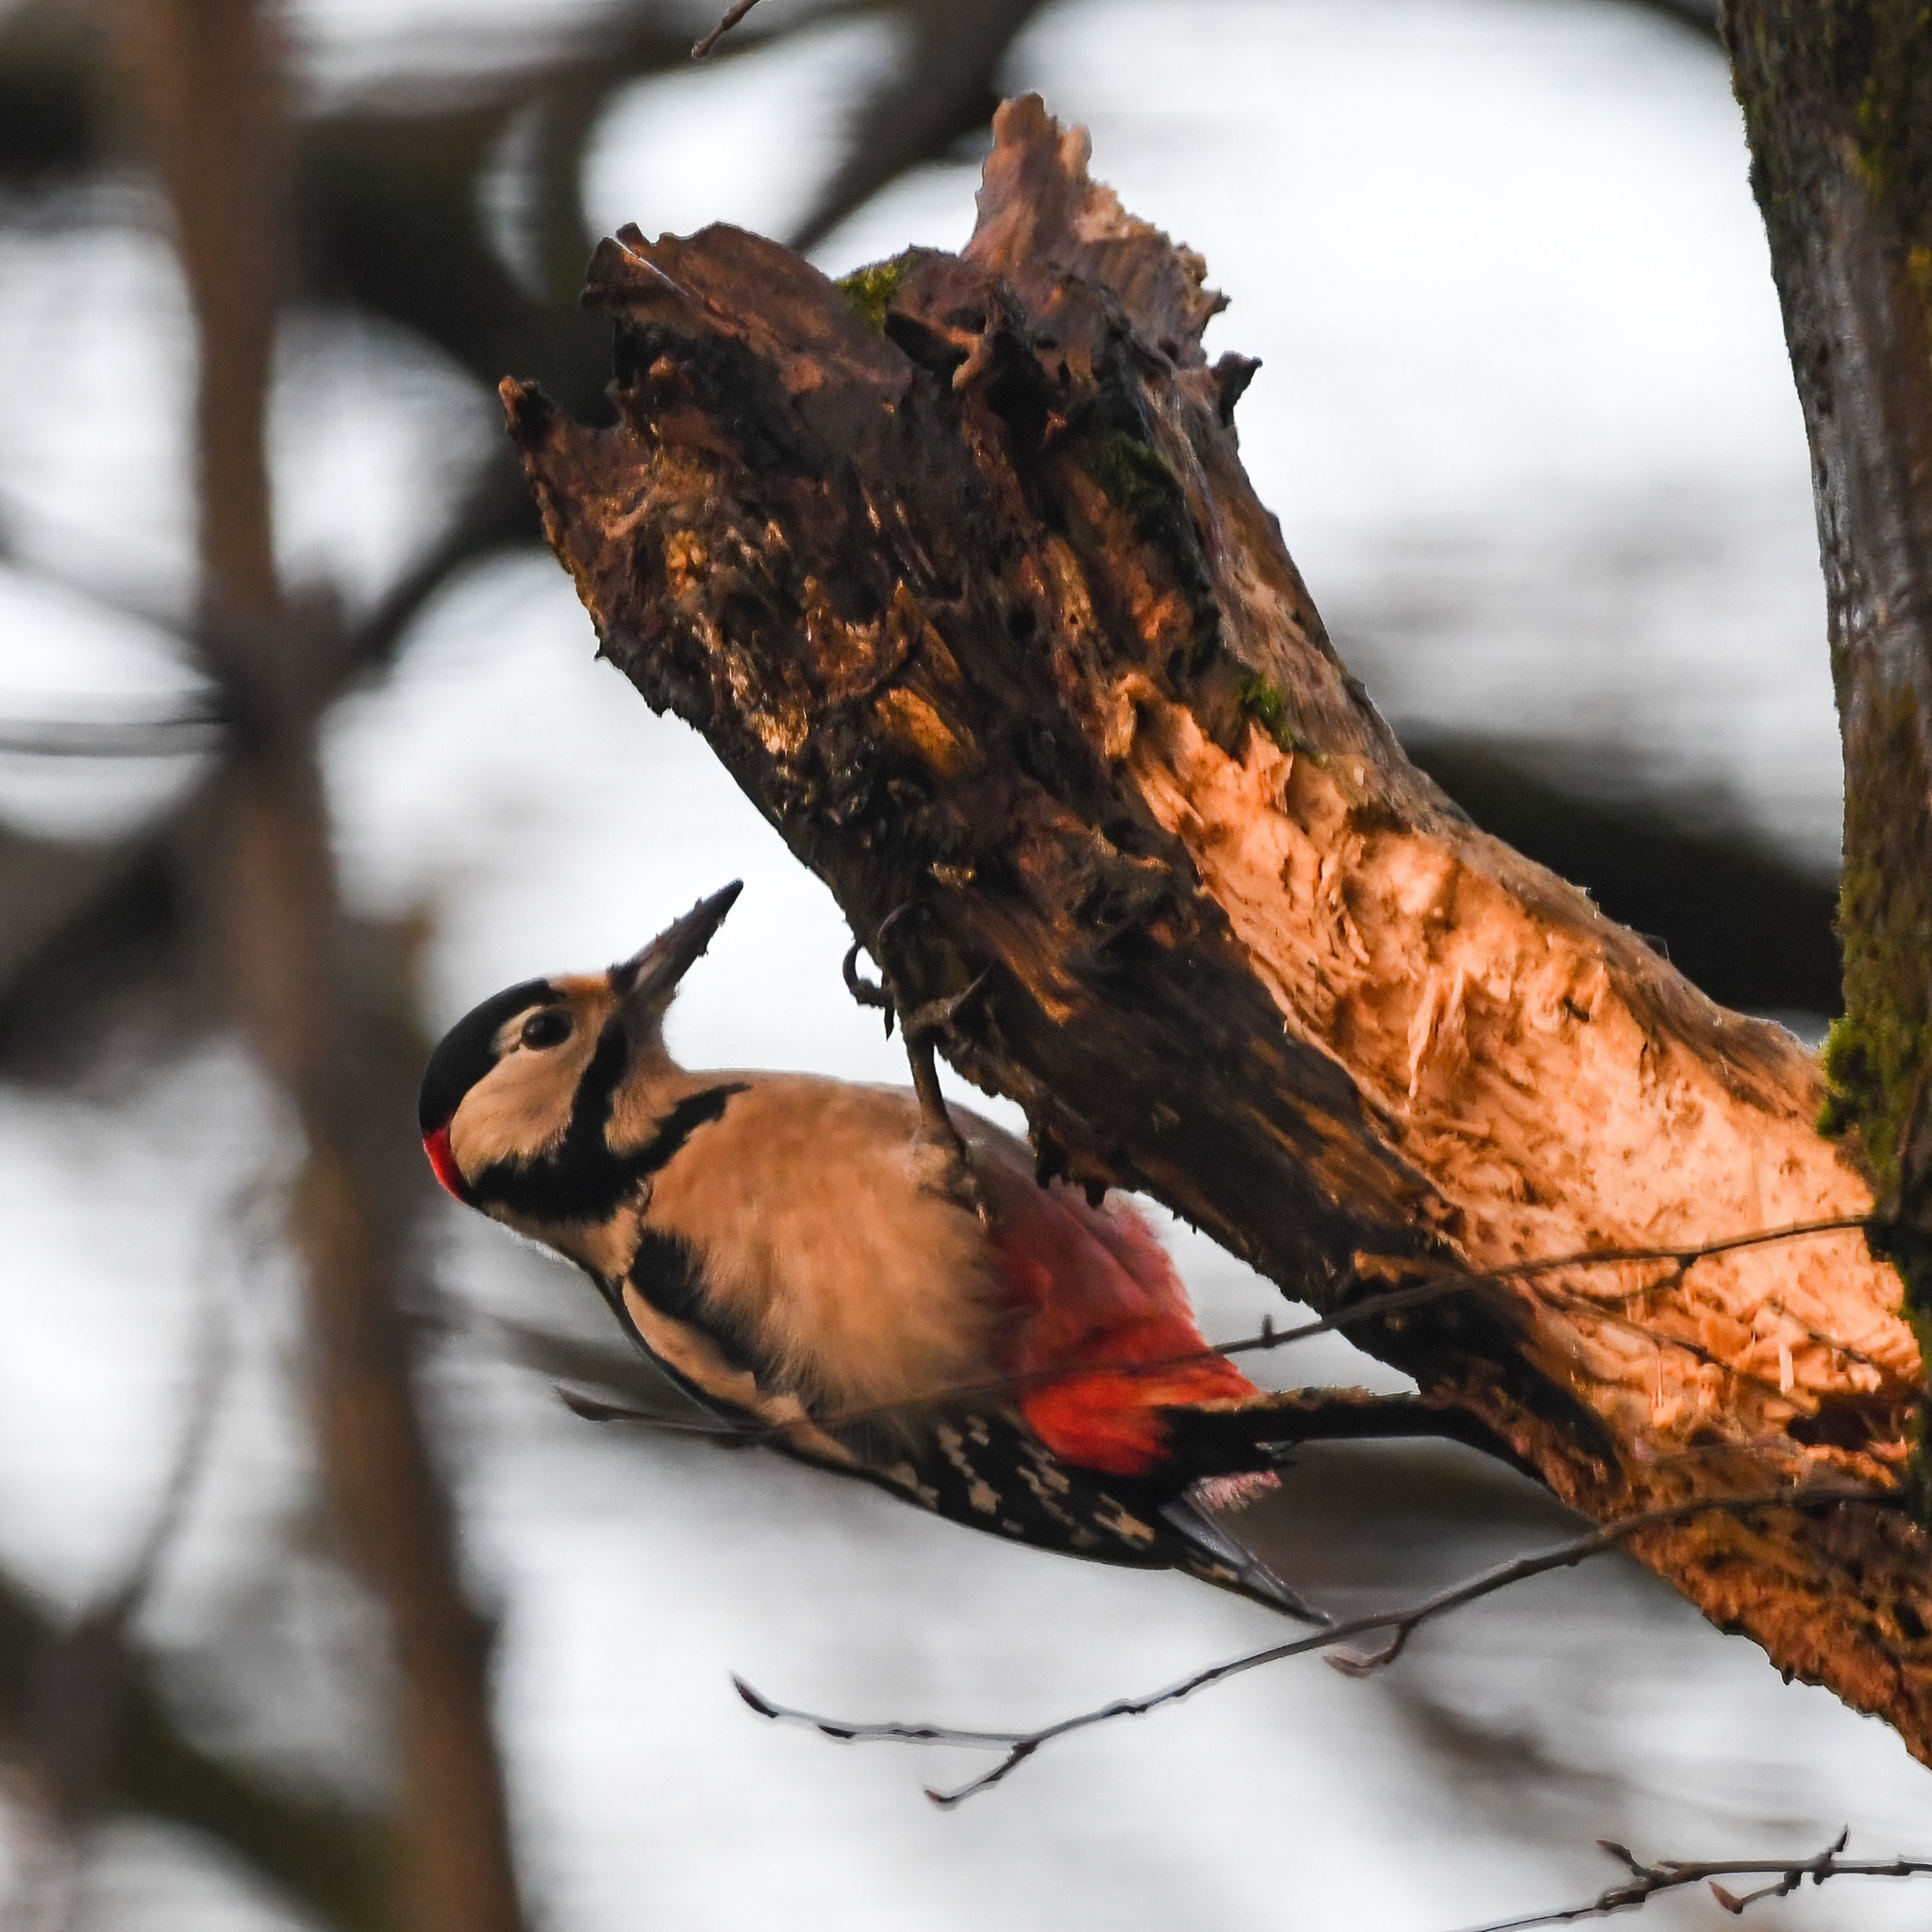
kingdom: Animalia
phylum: Chordata
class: Aves
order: Piciformes
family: Picidae
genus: Dendrocopos
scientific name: Dendrocopos major
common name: Great spotted woodpecker
